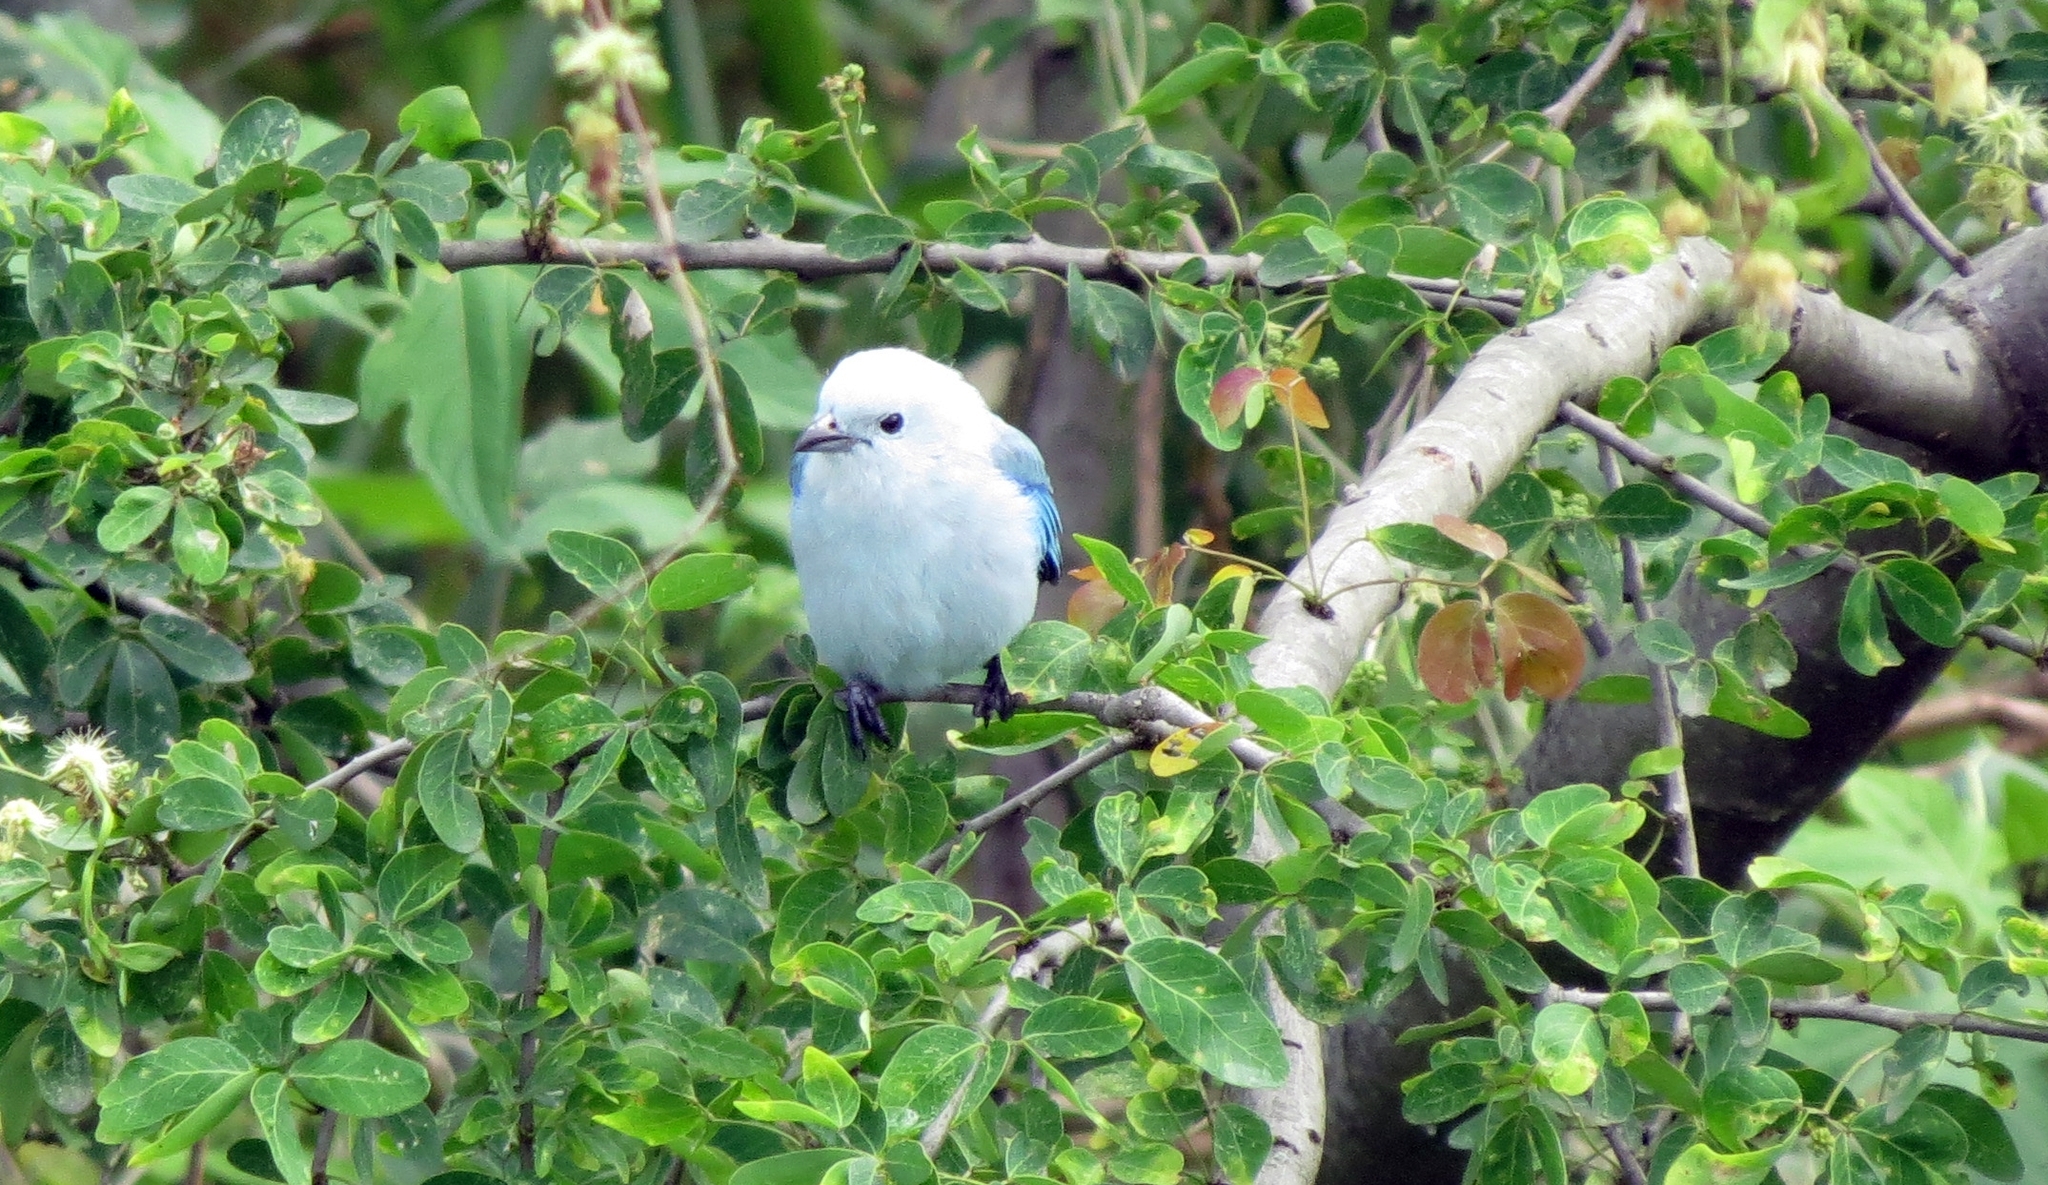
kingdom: Animalia
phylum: Chordata
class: Aves
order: Passeriformes
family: Thraupidae
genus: Thraupis
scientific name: Thraupis episcopus
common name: Blue-grey tanager
